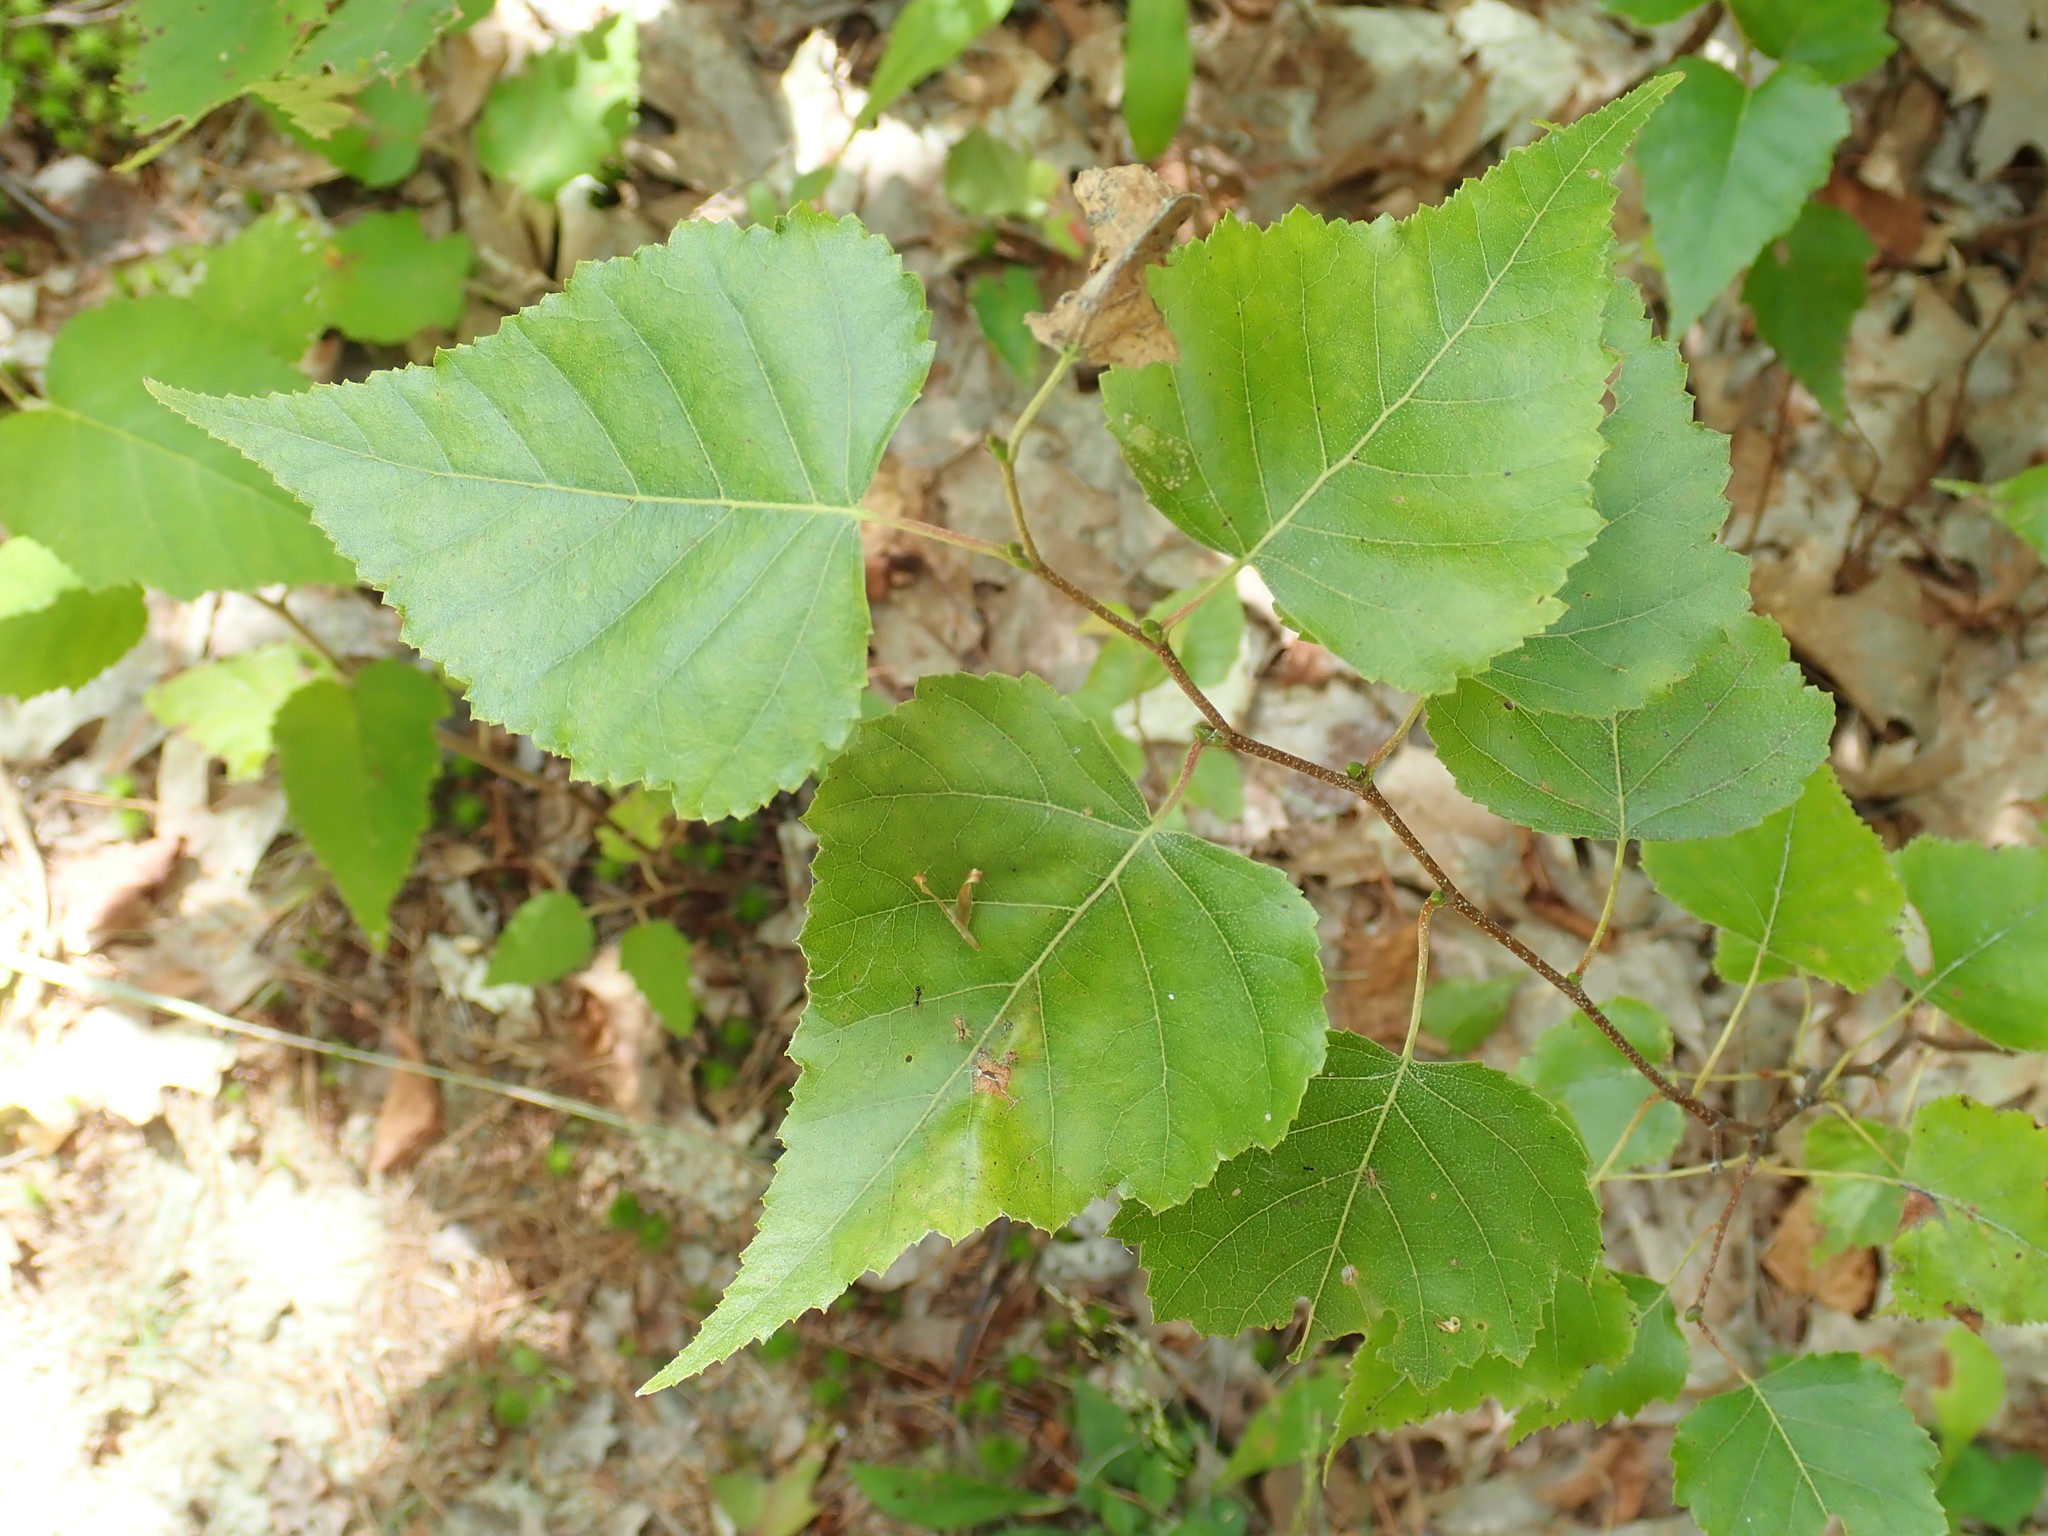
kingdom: Plantae
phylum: Tracheophyta
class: Magnoliopsida
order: Fagales
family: Betulaceae
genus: Betula
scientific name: Betula populifolia
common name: Fire birch
